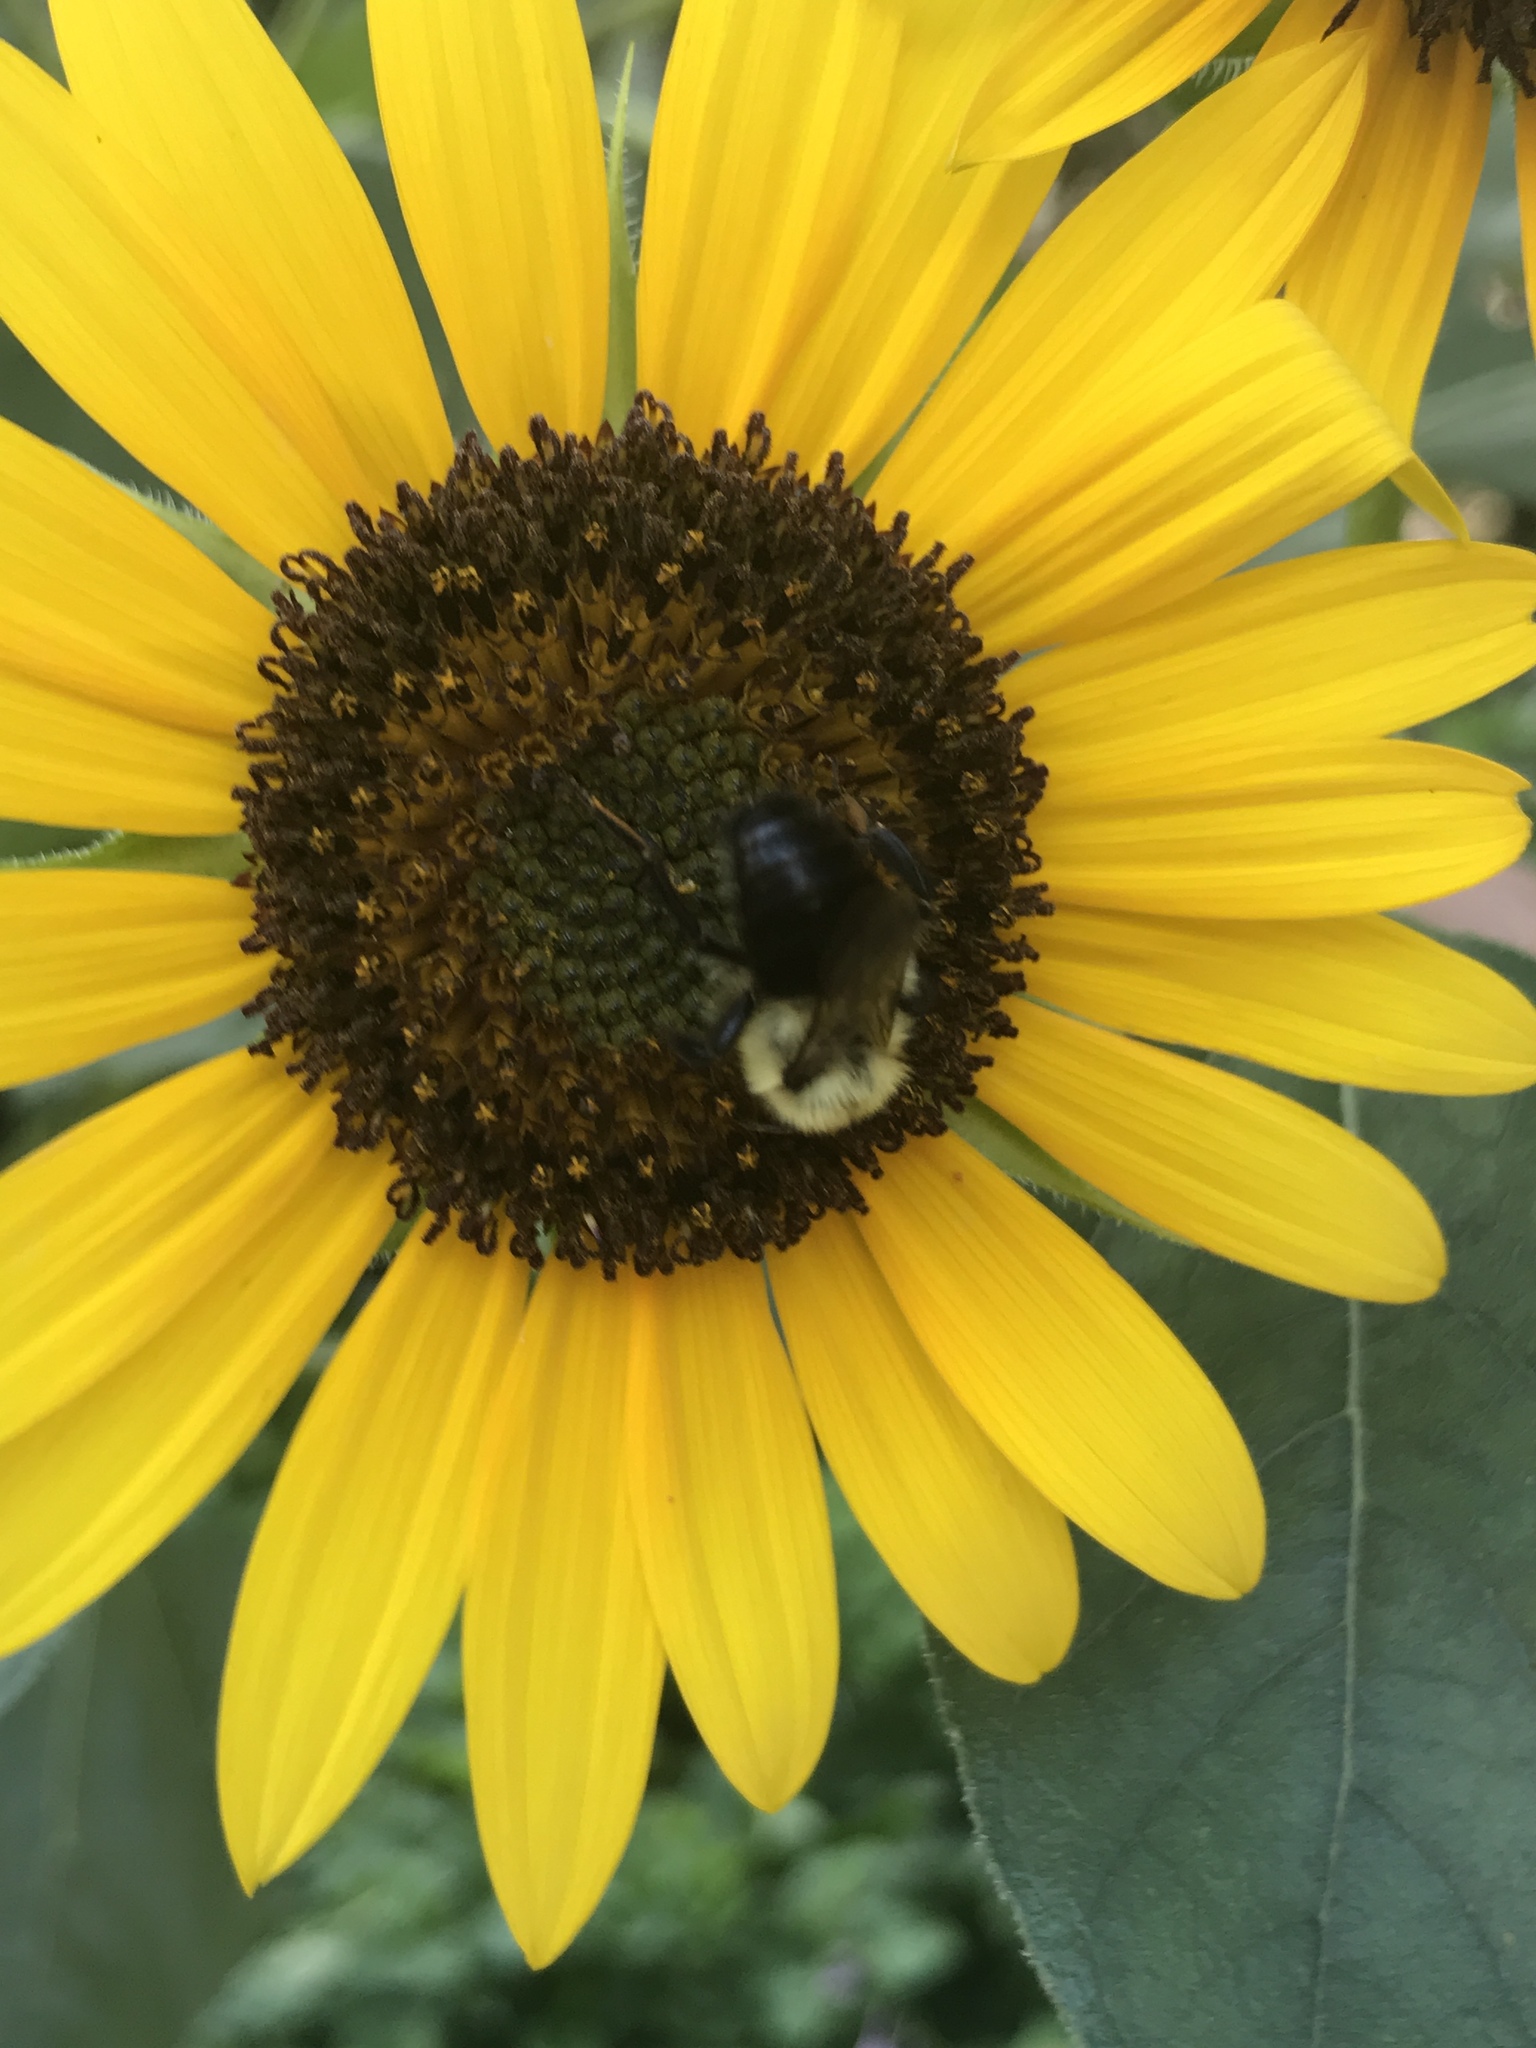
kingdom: Animalia
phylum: Arthropoda
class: Insecta
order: Hymenoptera
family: Apidae
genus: Bombus
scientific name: Bombus impatiens
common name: Common eastern bumble bee
